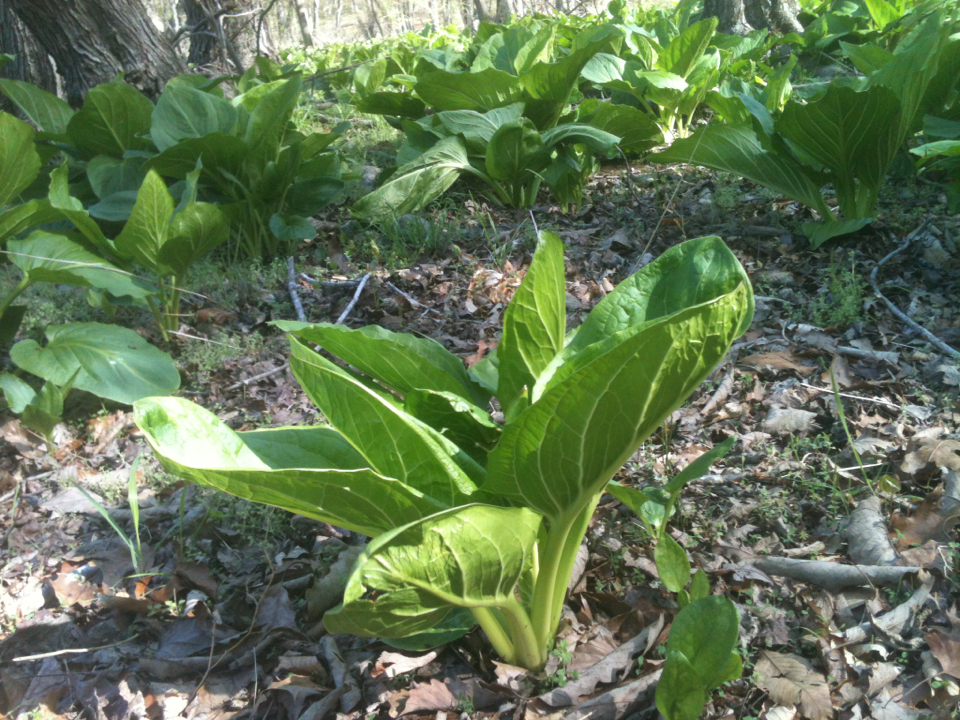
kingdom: Plantae
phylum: Tracheophyta
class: Liliopsida
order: Alismatales
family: Araceae
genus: Symplocarpus
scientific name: Symplocarpus foetidus
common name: Eastern skunk cabbage
